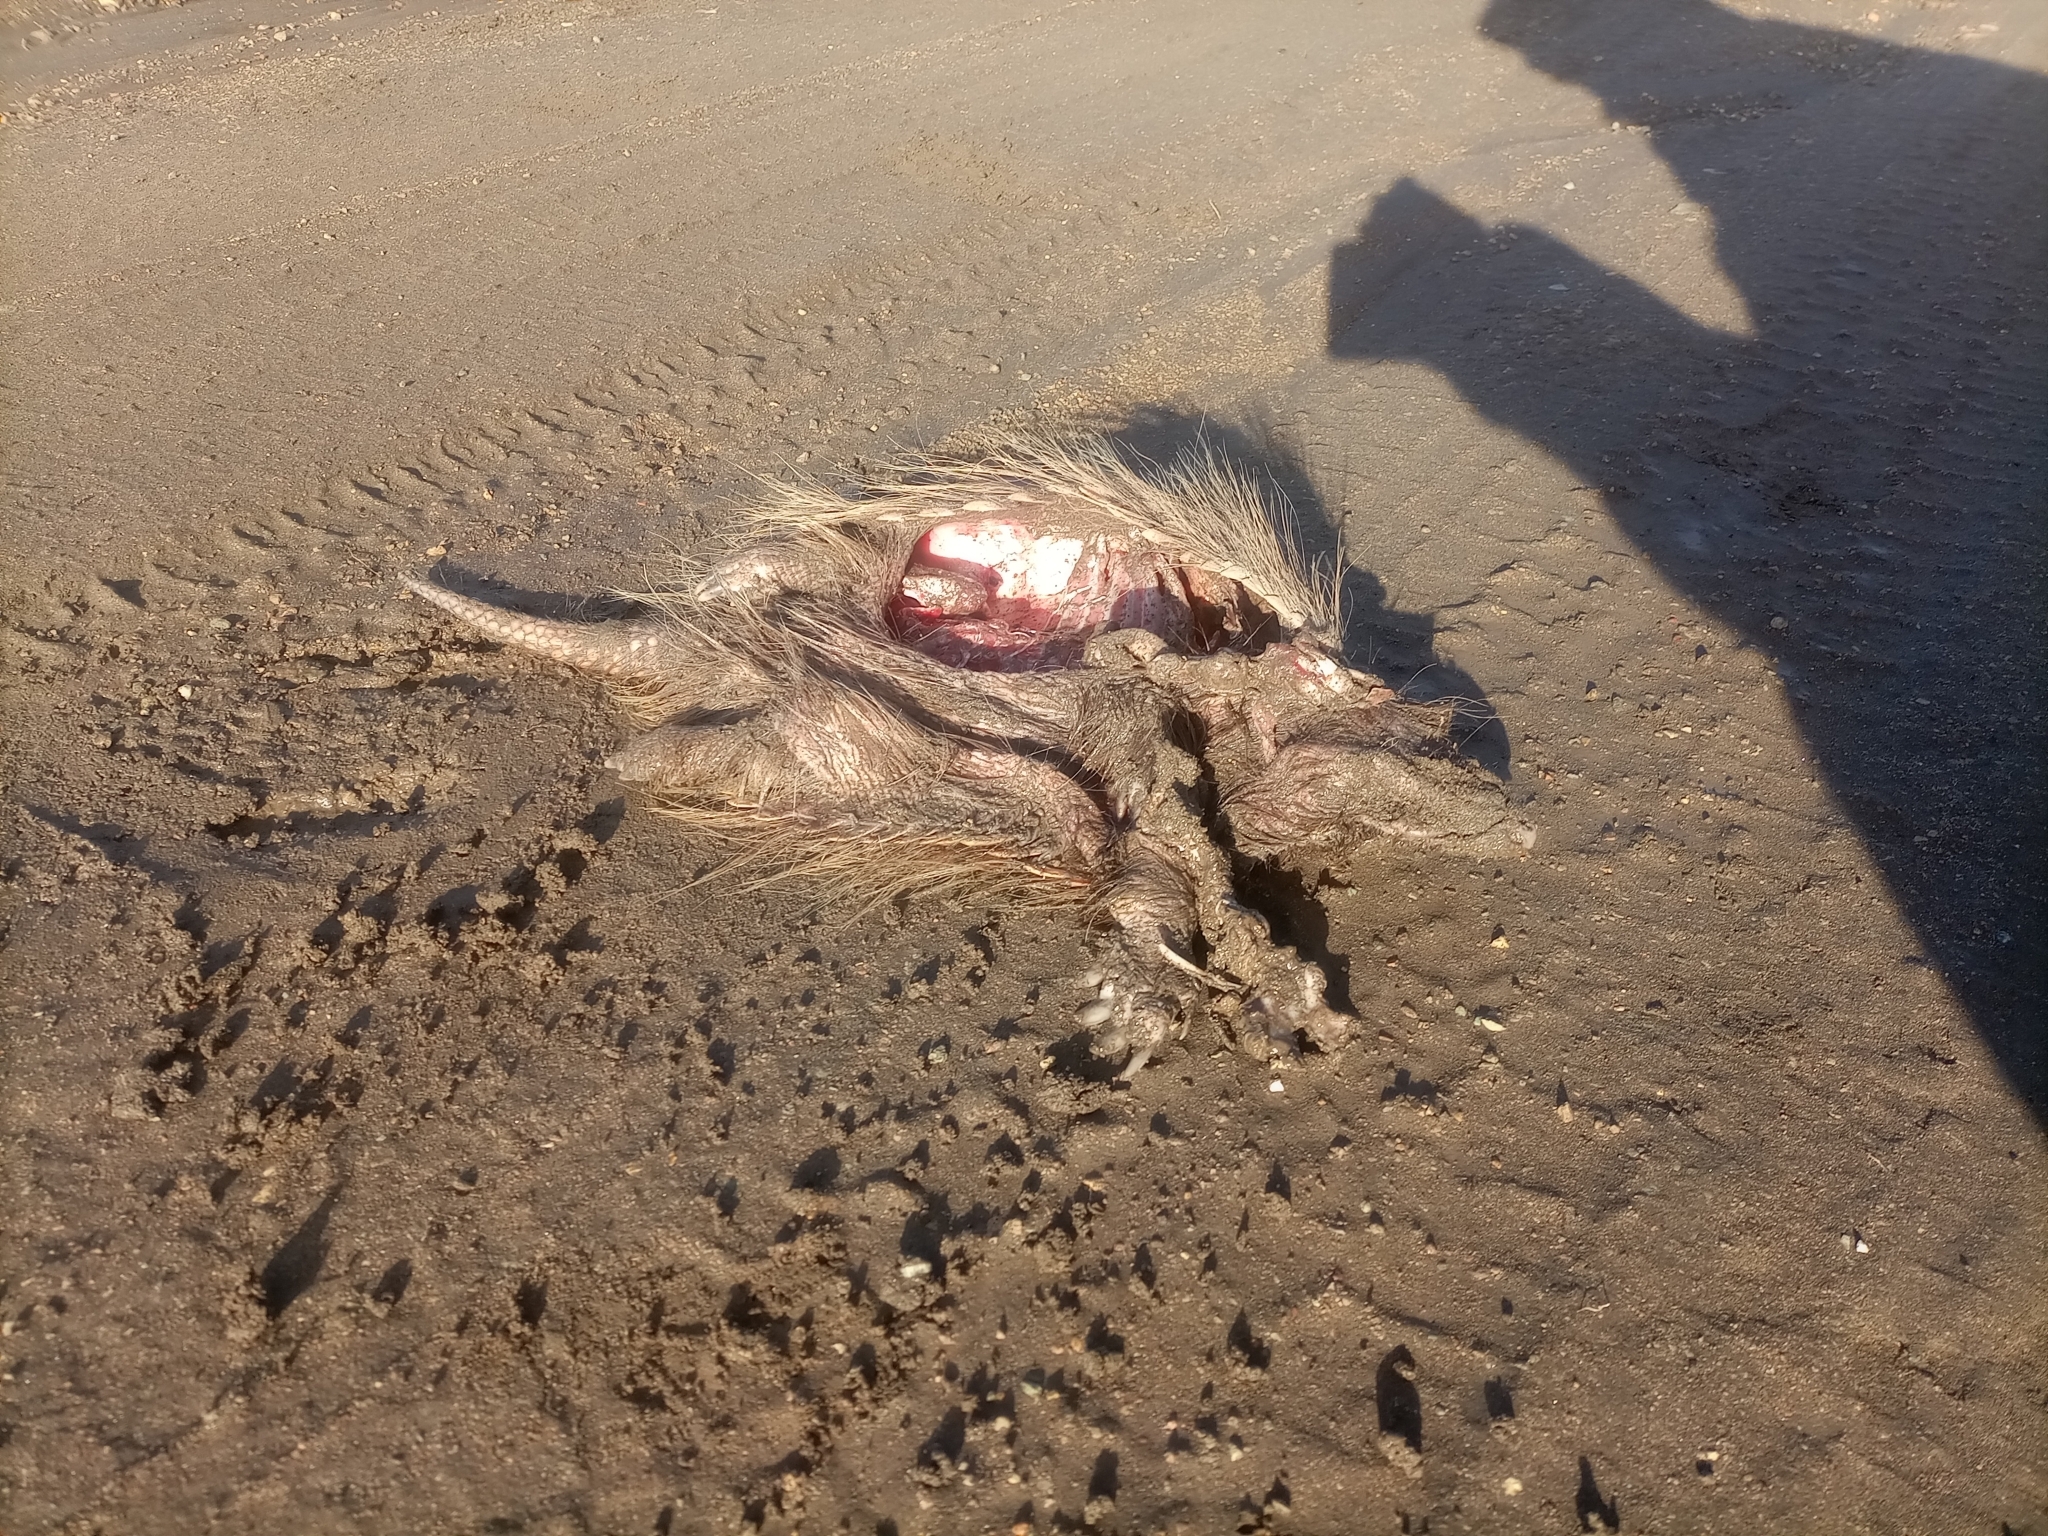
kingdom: Animalia
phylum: Chordata
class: Mammalia
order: Cingulata
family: Dasypodidae
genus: Chaetophractus
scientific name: Chaetophractus villosus
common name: Big hairy armadillo
